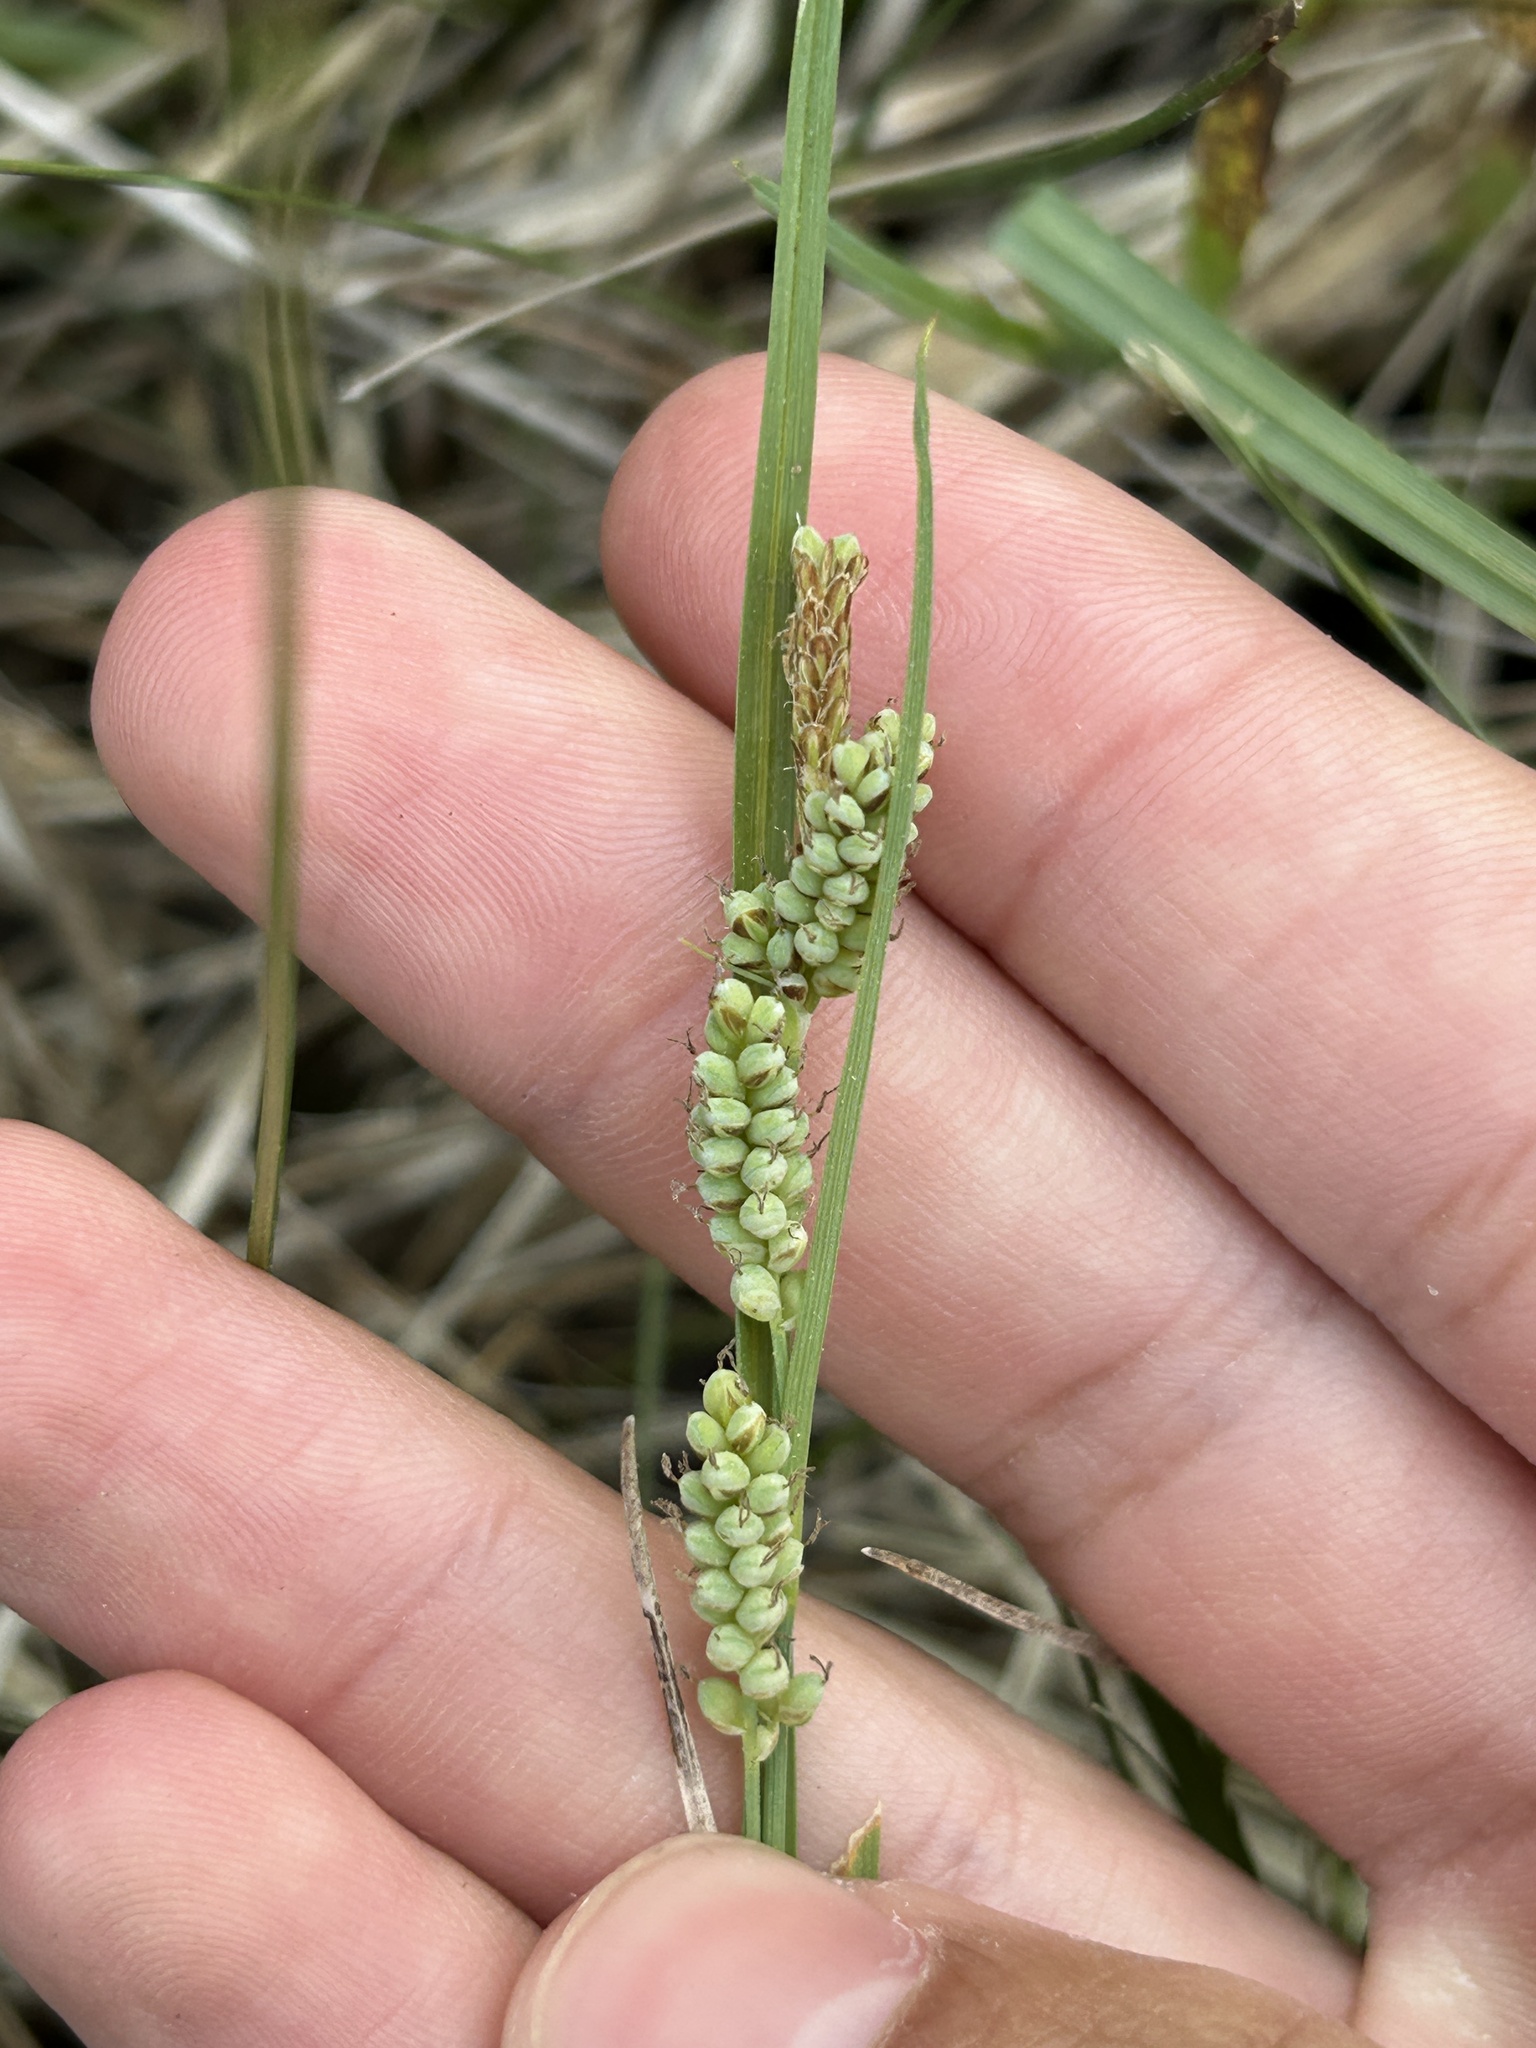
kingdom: Plantae
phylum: Tracheophyta
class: Liliopsida
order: Poales
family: Cyperaceae
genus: Carex
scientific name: Carex garberi
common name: Elk sedge
